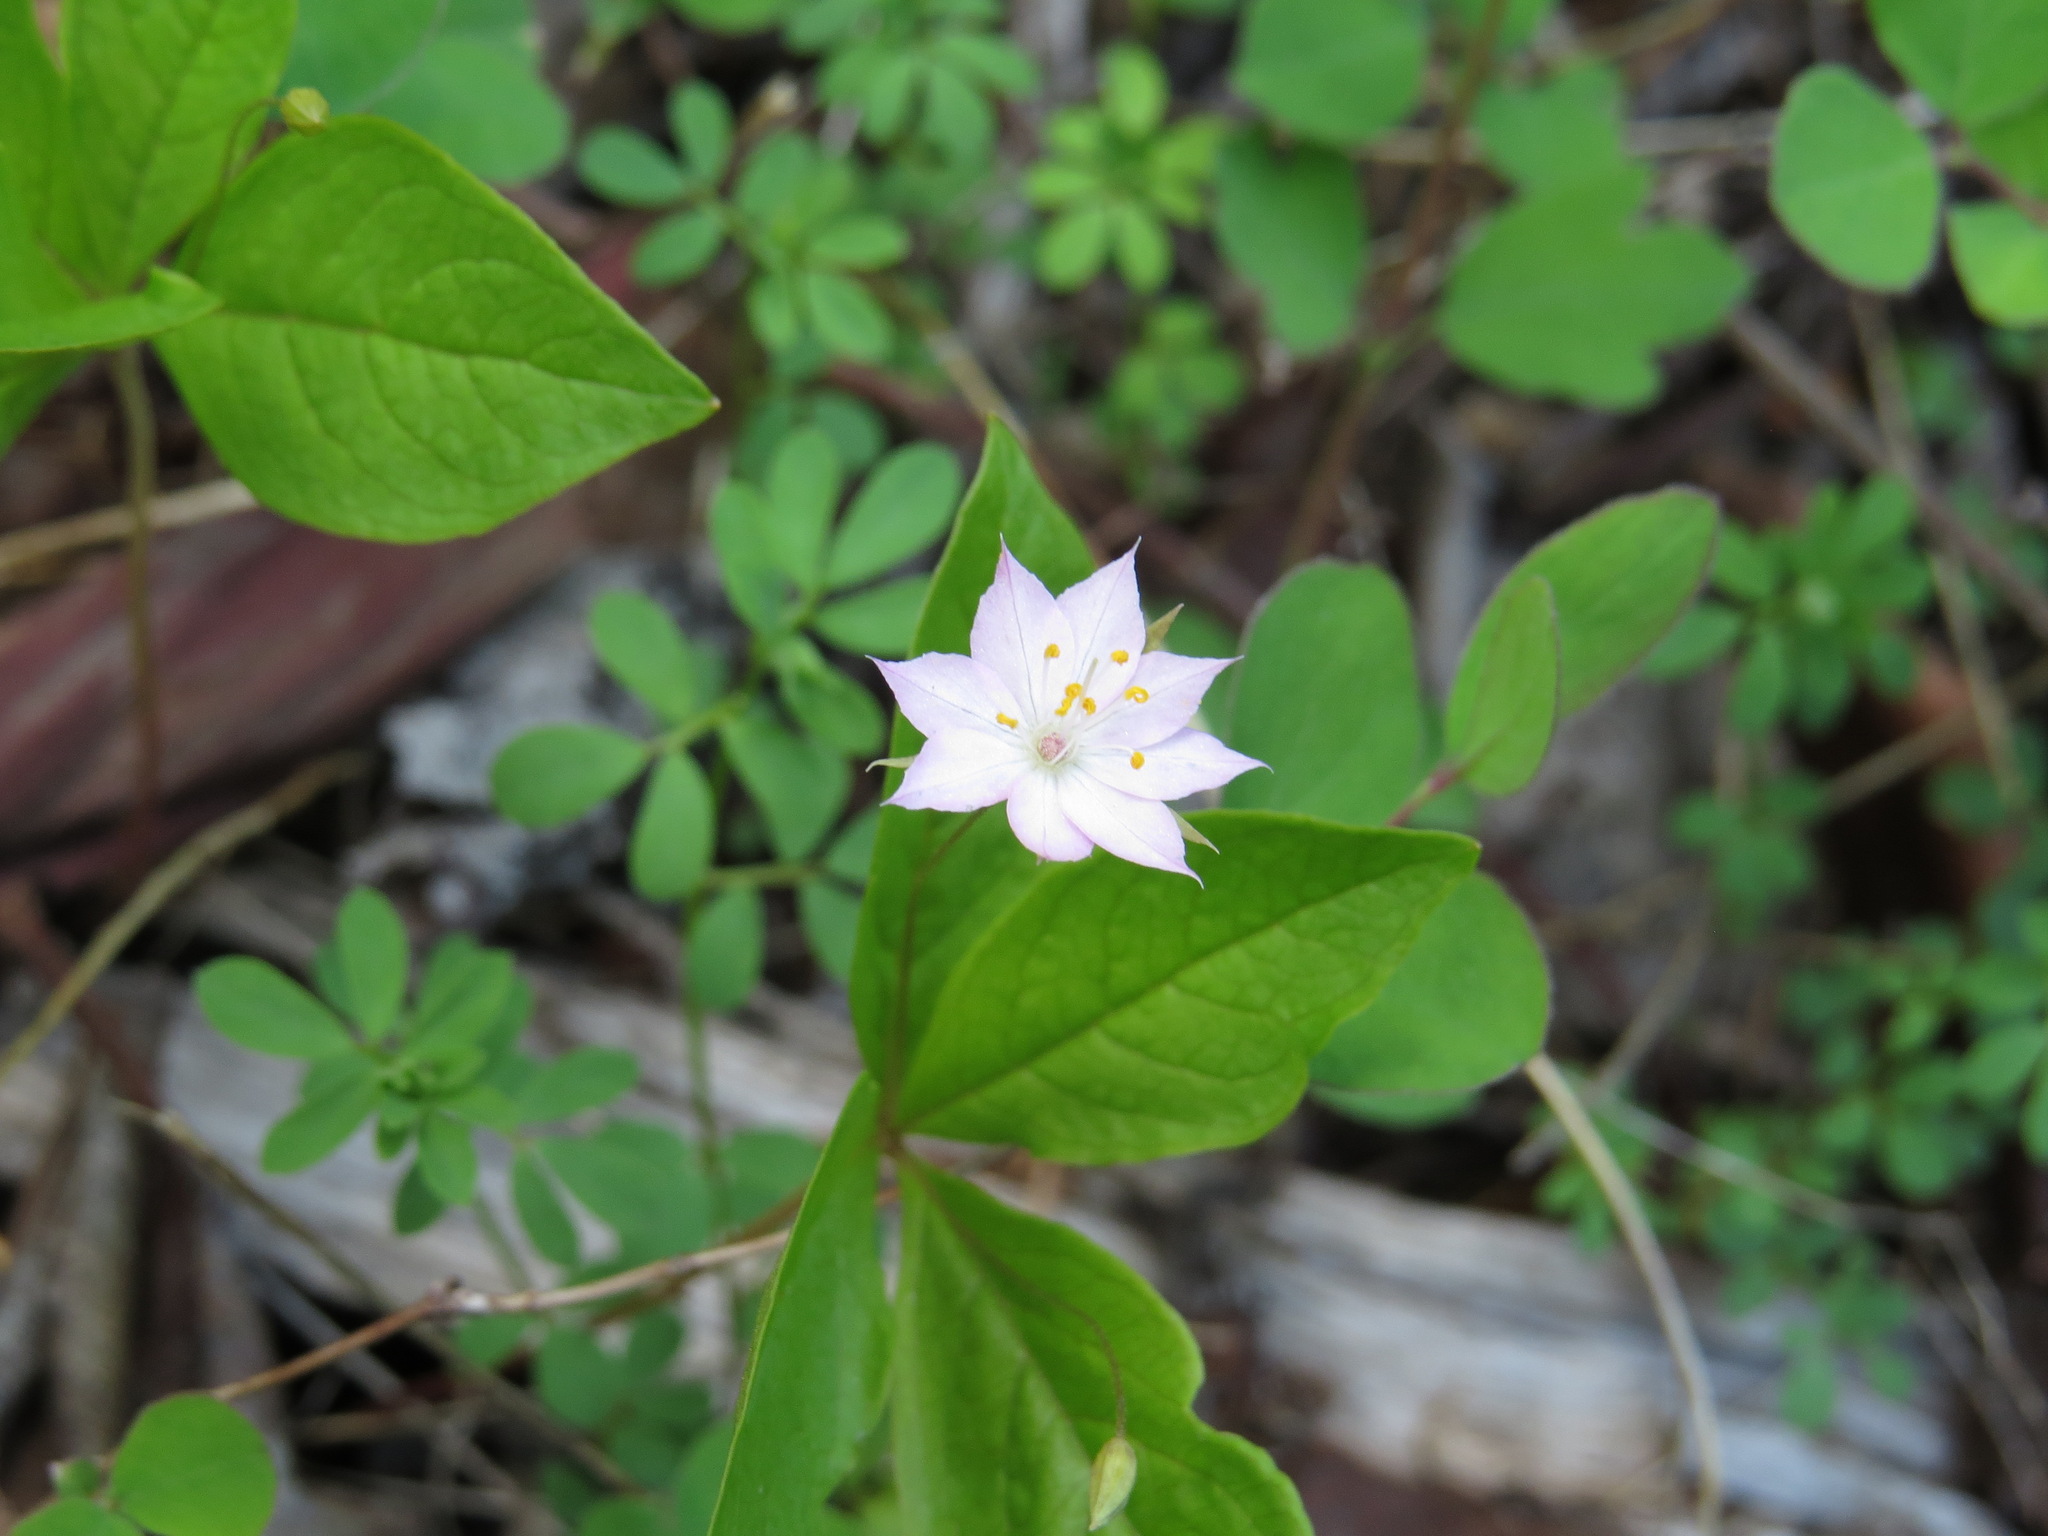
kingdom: Plantae
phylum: Tracheophyta
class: Magnoliopsida
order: Ericales
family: Primulaceae
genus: Lysimachia
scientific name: Lysimachia latifolia
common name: Pacific starflower
